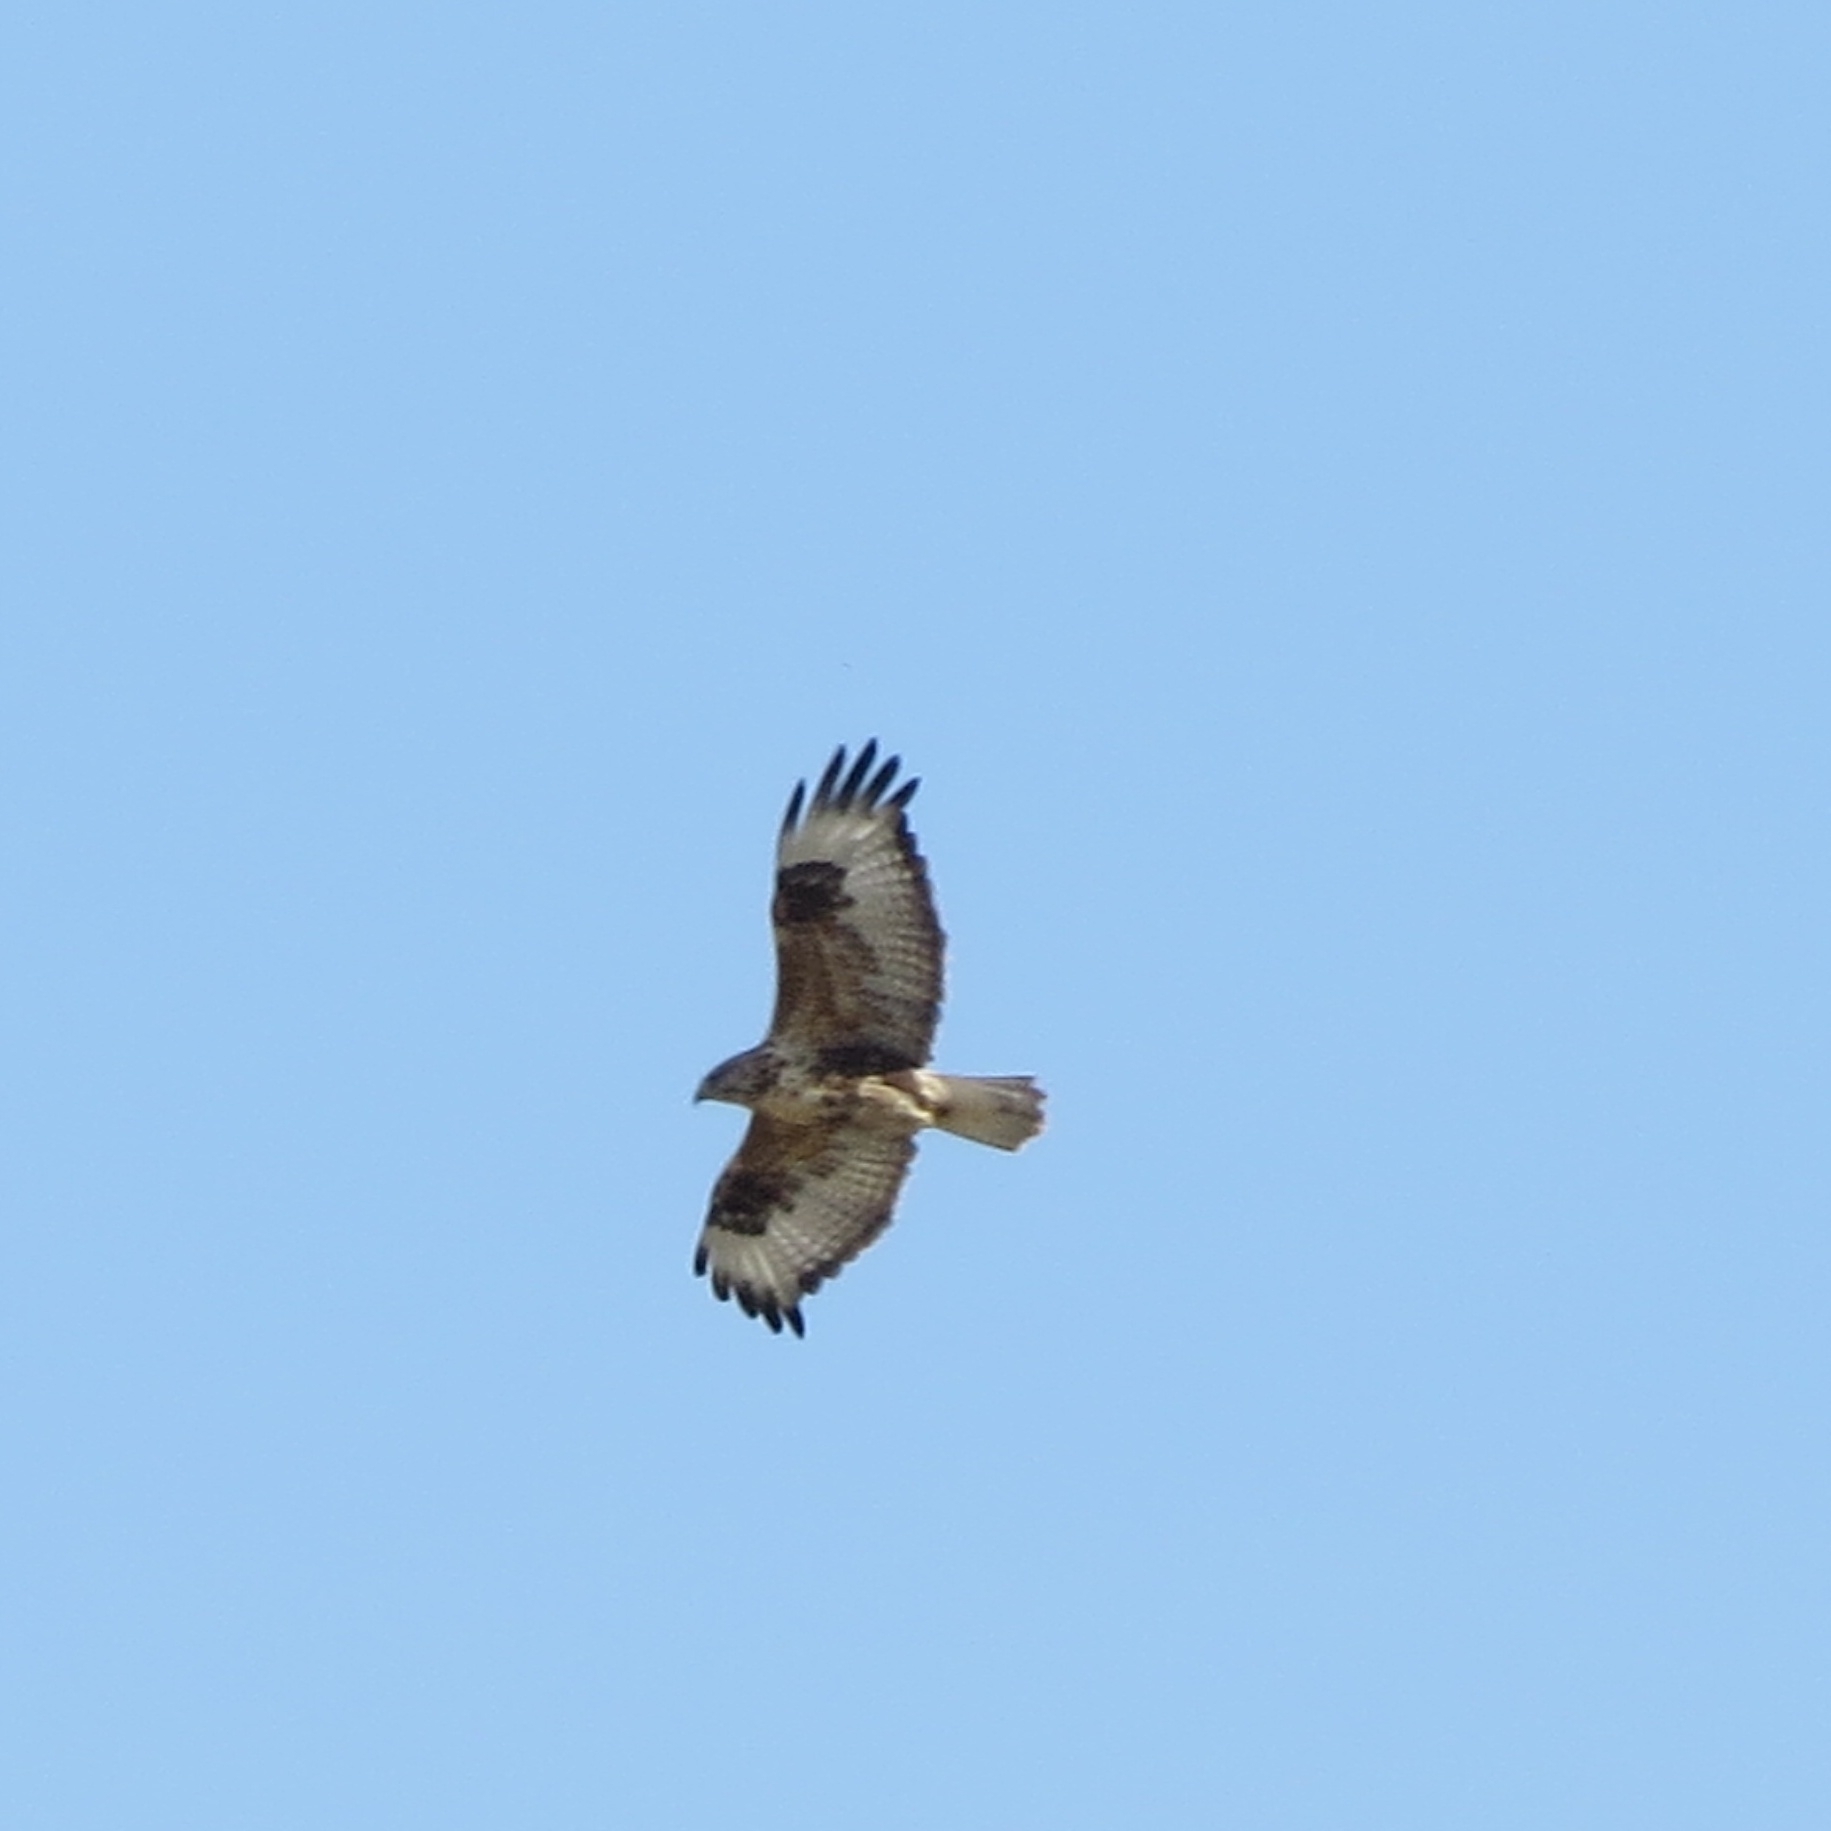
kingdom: Animalia
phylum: Chordata
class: Aves
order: Accipitriformes
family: Accipitridae
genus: Buteo
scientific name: Buteo hemilasius
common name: Upland buzzard
